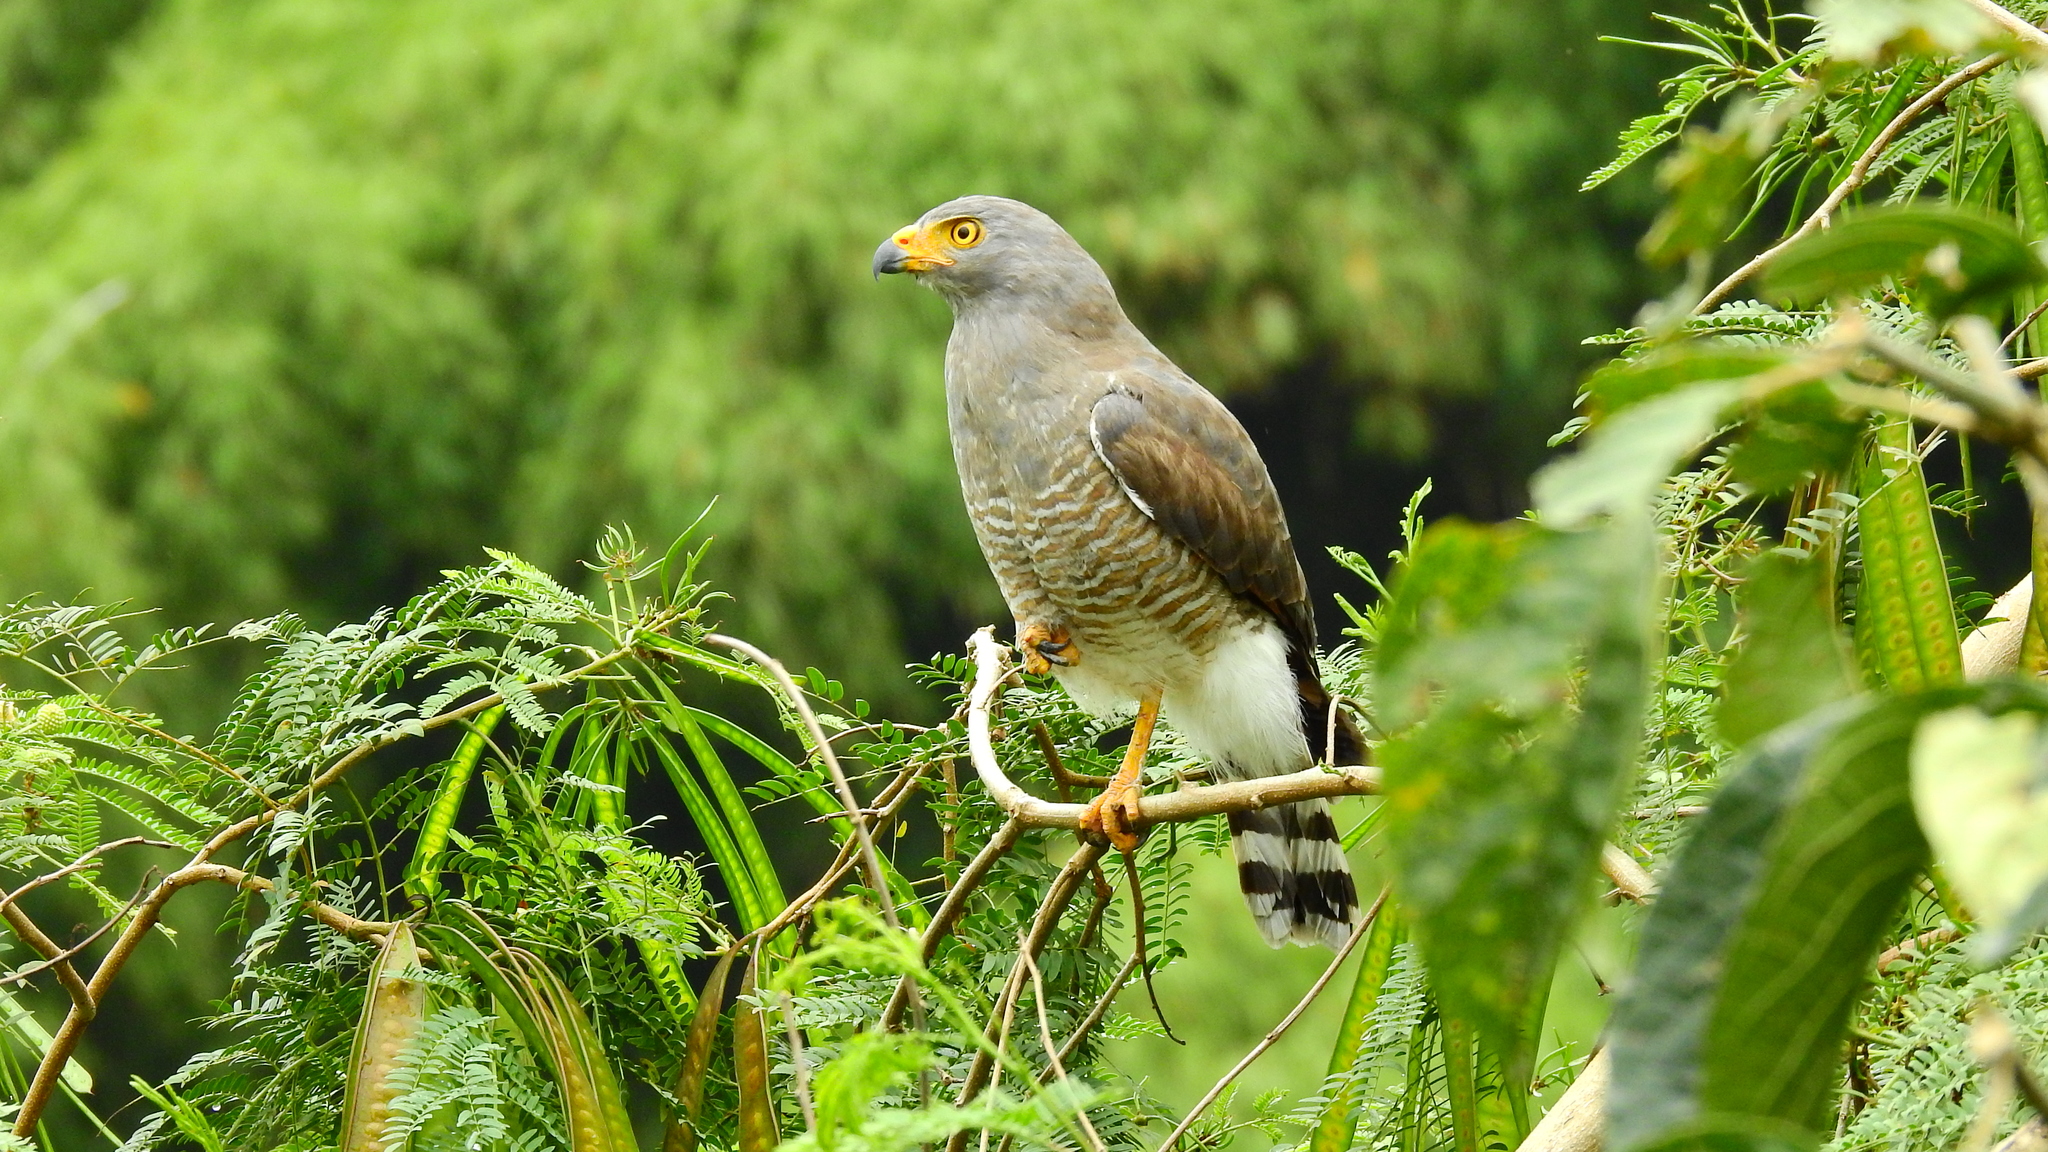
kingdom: Animalia
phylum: Chordata
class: Aves
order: Accipitriformes
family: Accipitridae
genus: Rupornis
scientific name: Rupornis magnirostris
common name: Roadside hawk
